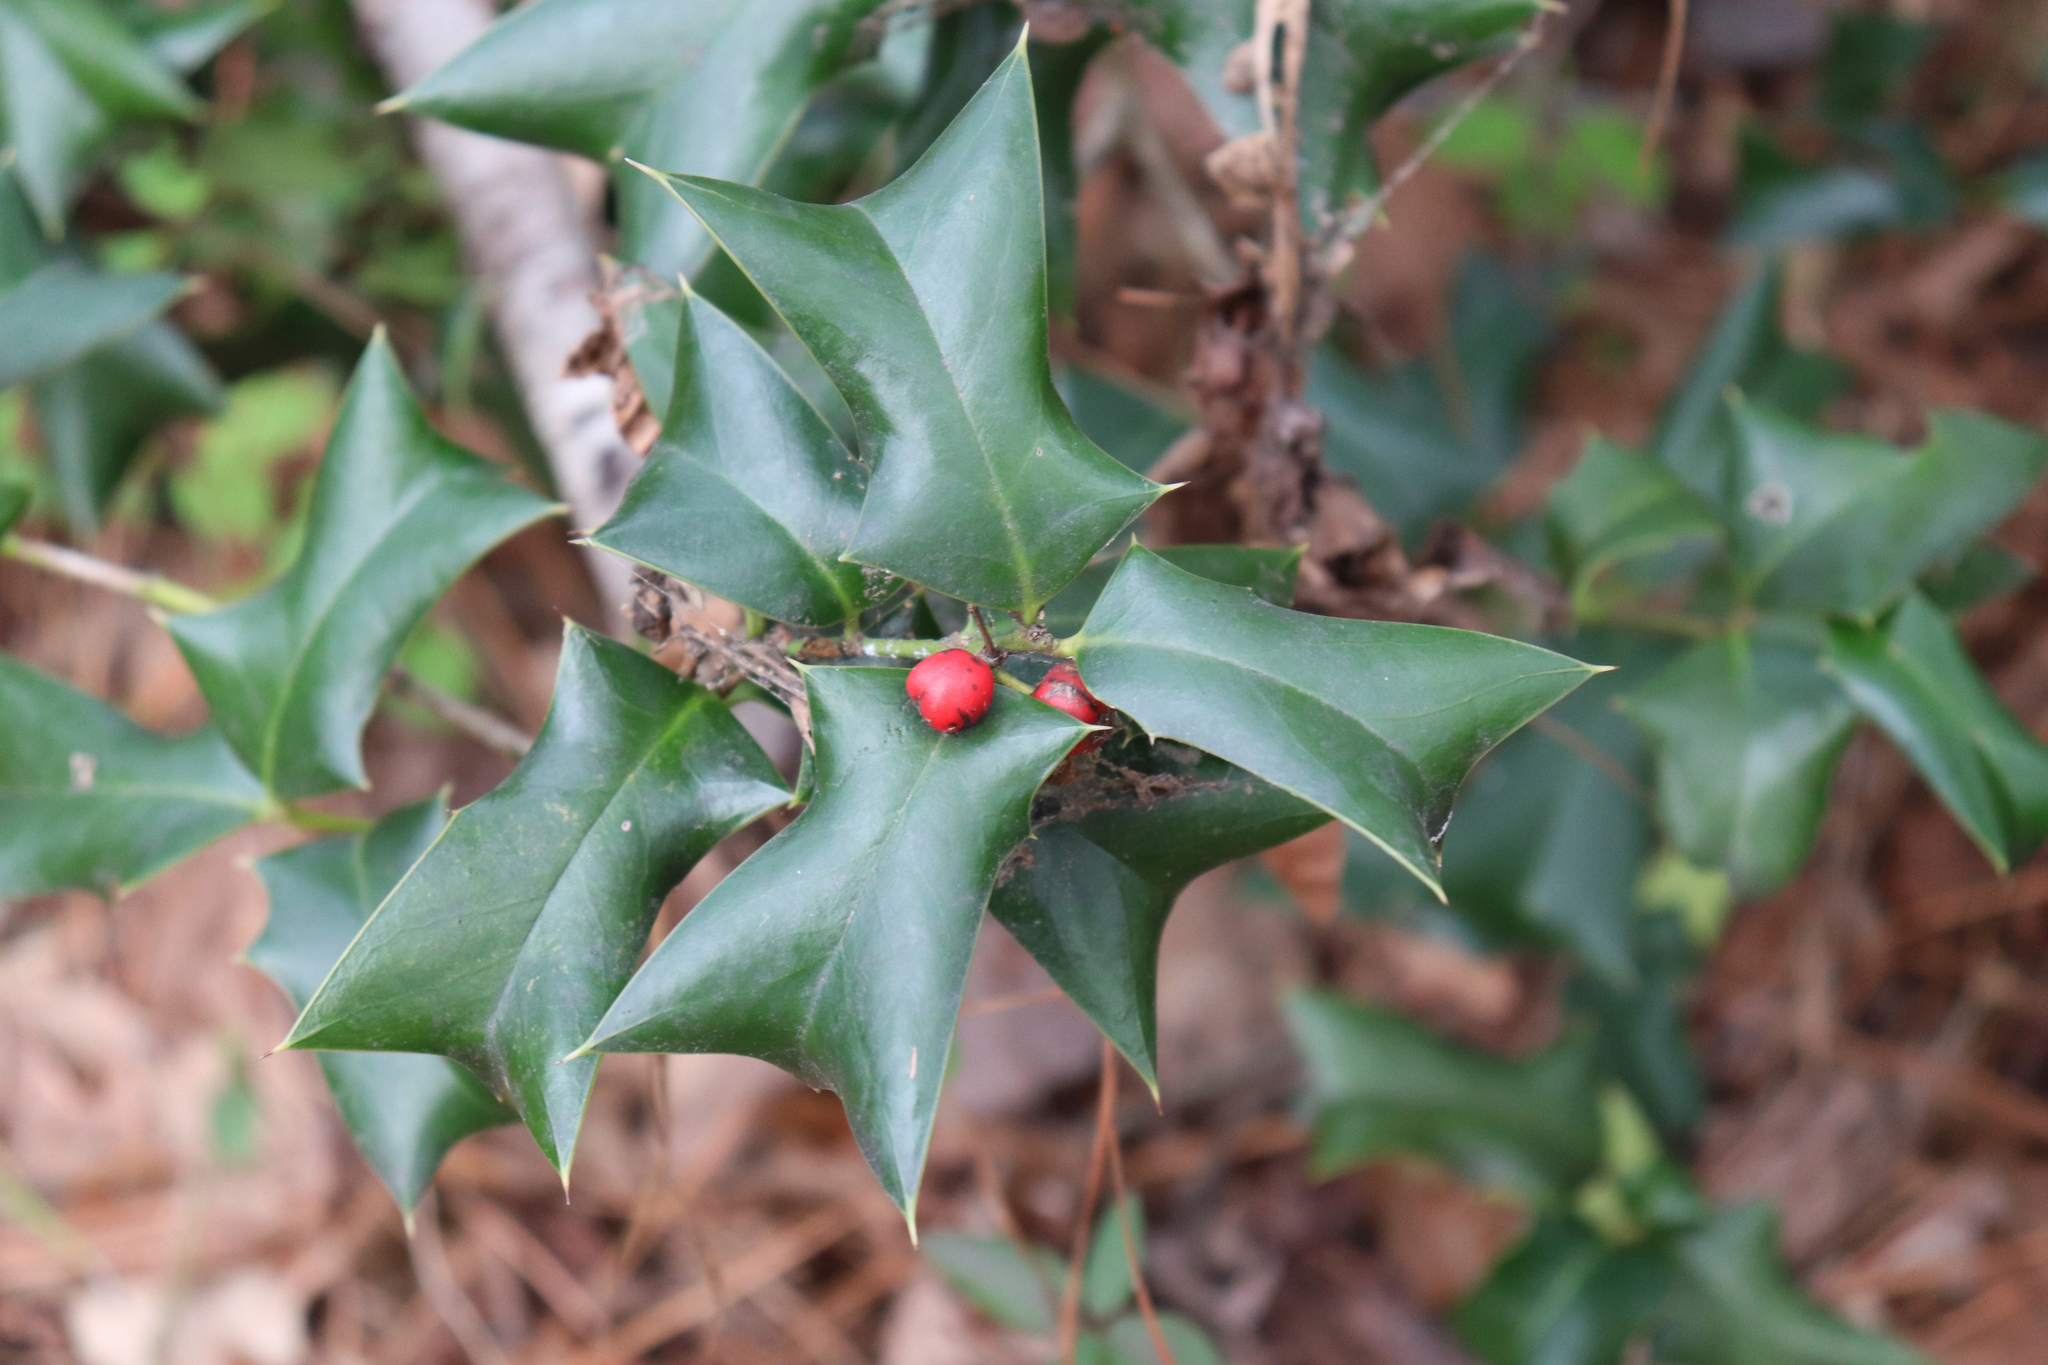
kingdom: Plantae
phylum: Tracheophyta
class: Magnoliopsida
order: Aquifoliales
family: Aquifoliaceae
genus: Ilex
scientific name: Ilex cornuta
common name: Chinese holly
